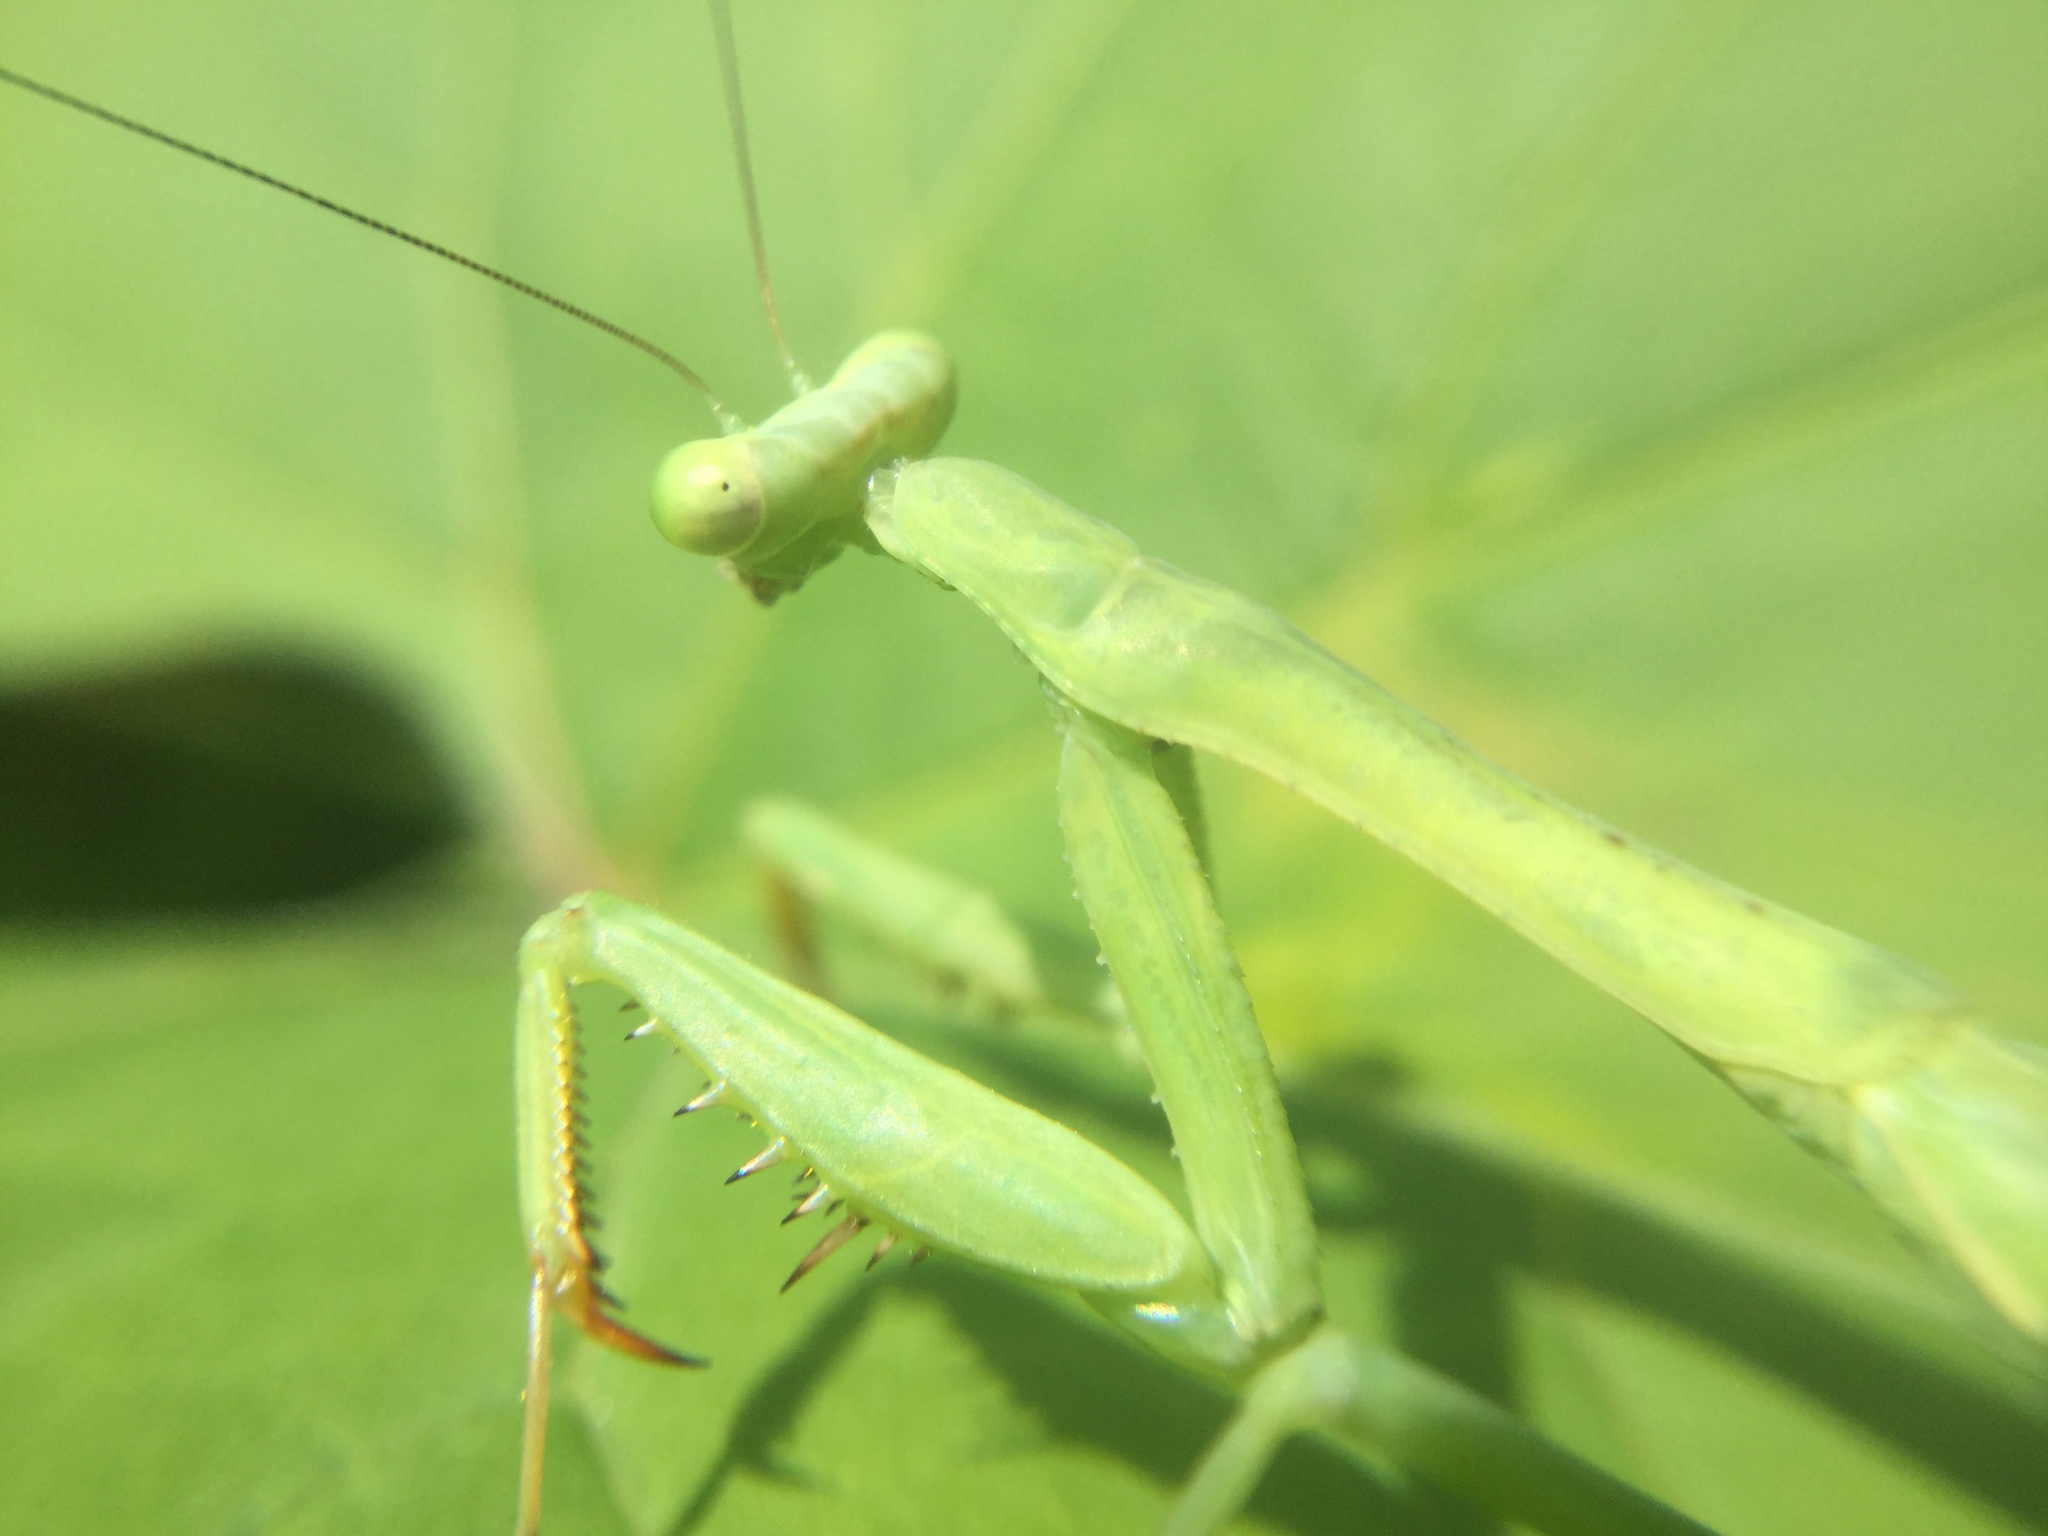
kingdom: Animalia
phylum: Arthropoda
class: Insecta
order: Mantodea
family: Mantidae
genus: Stagmomantis
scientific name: Stagmomantis carolina
